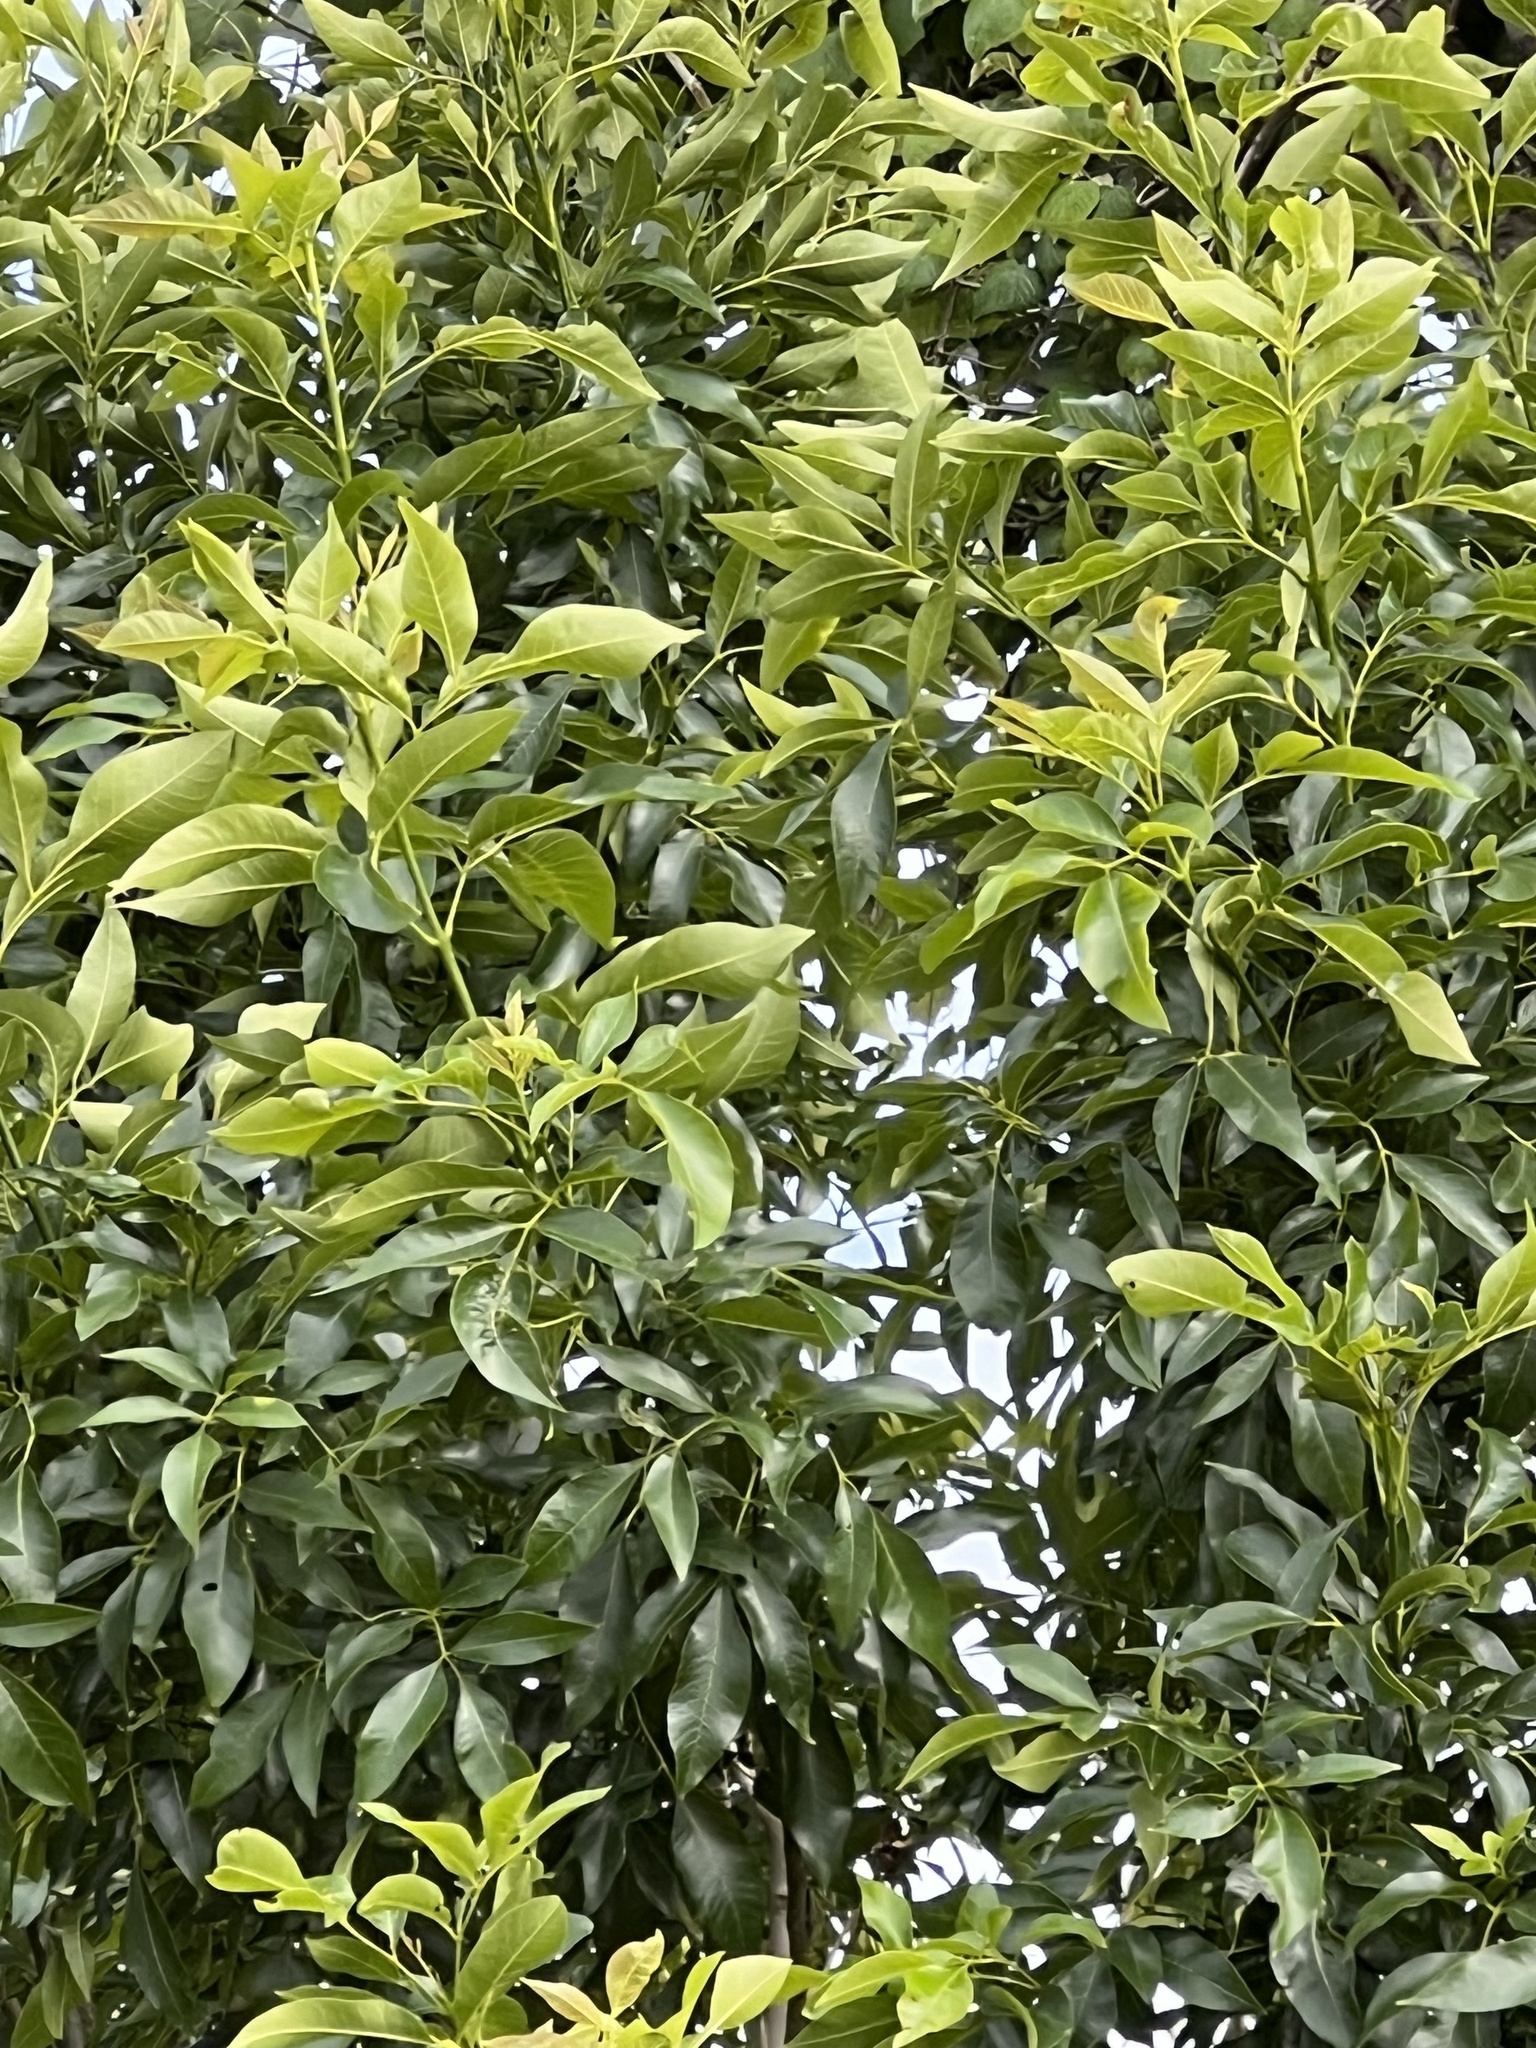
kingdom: Plantae
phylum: Tracheophyta
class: Magnoliopsida
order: Lamiales
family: Oleaceae
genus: Fraxinus
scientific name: Fraxinus pennsylvanica
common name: Green ash
